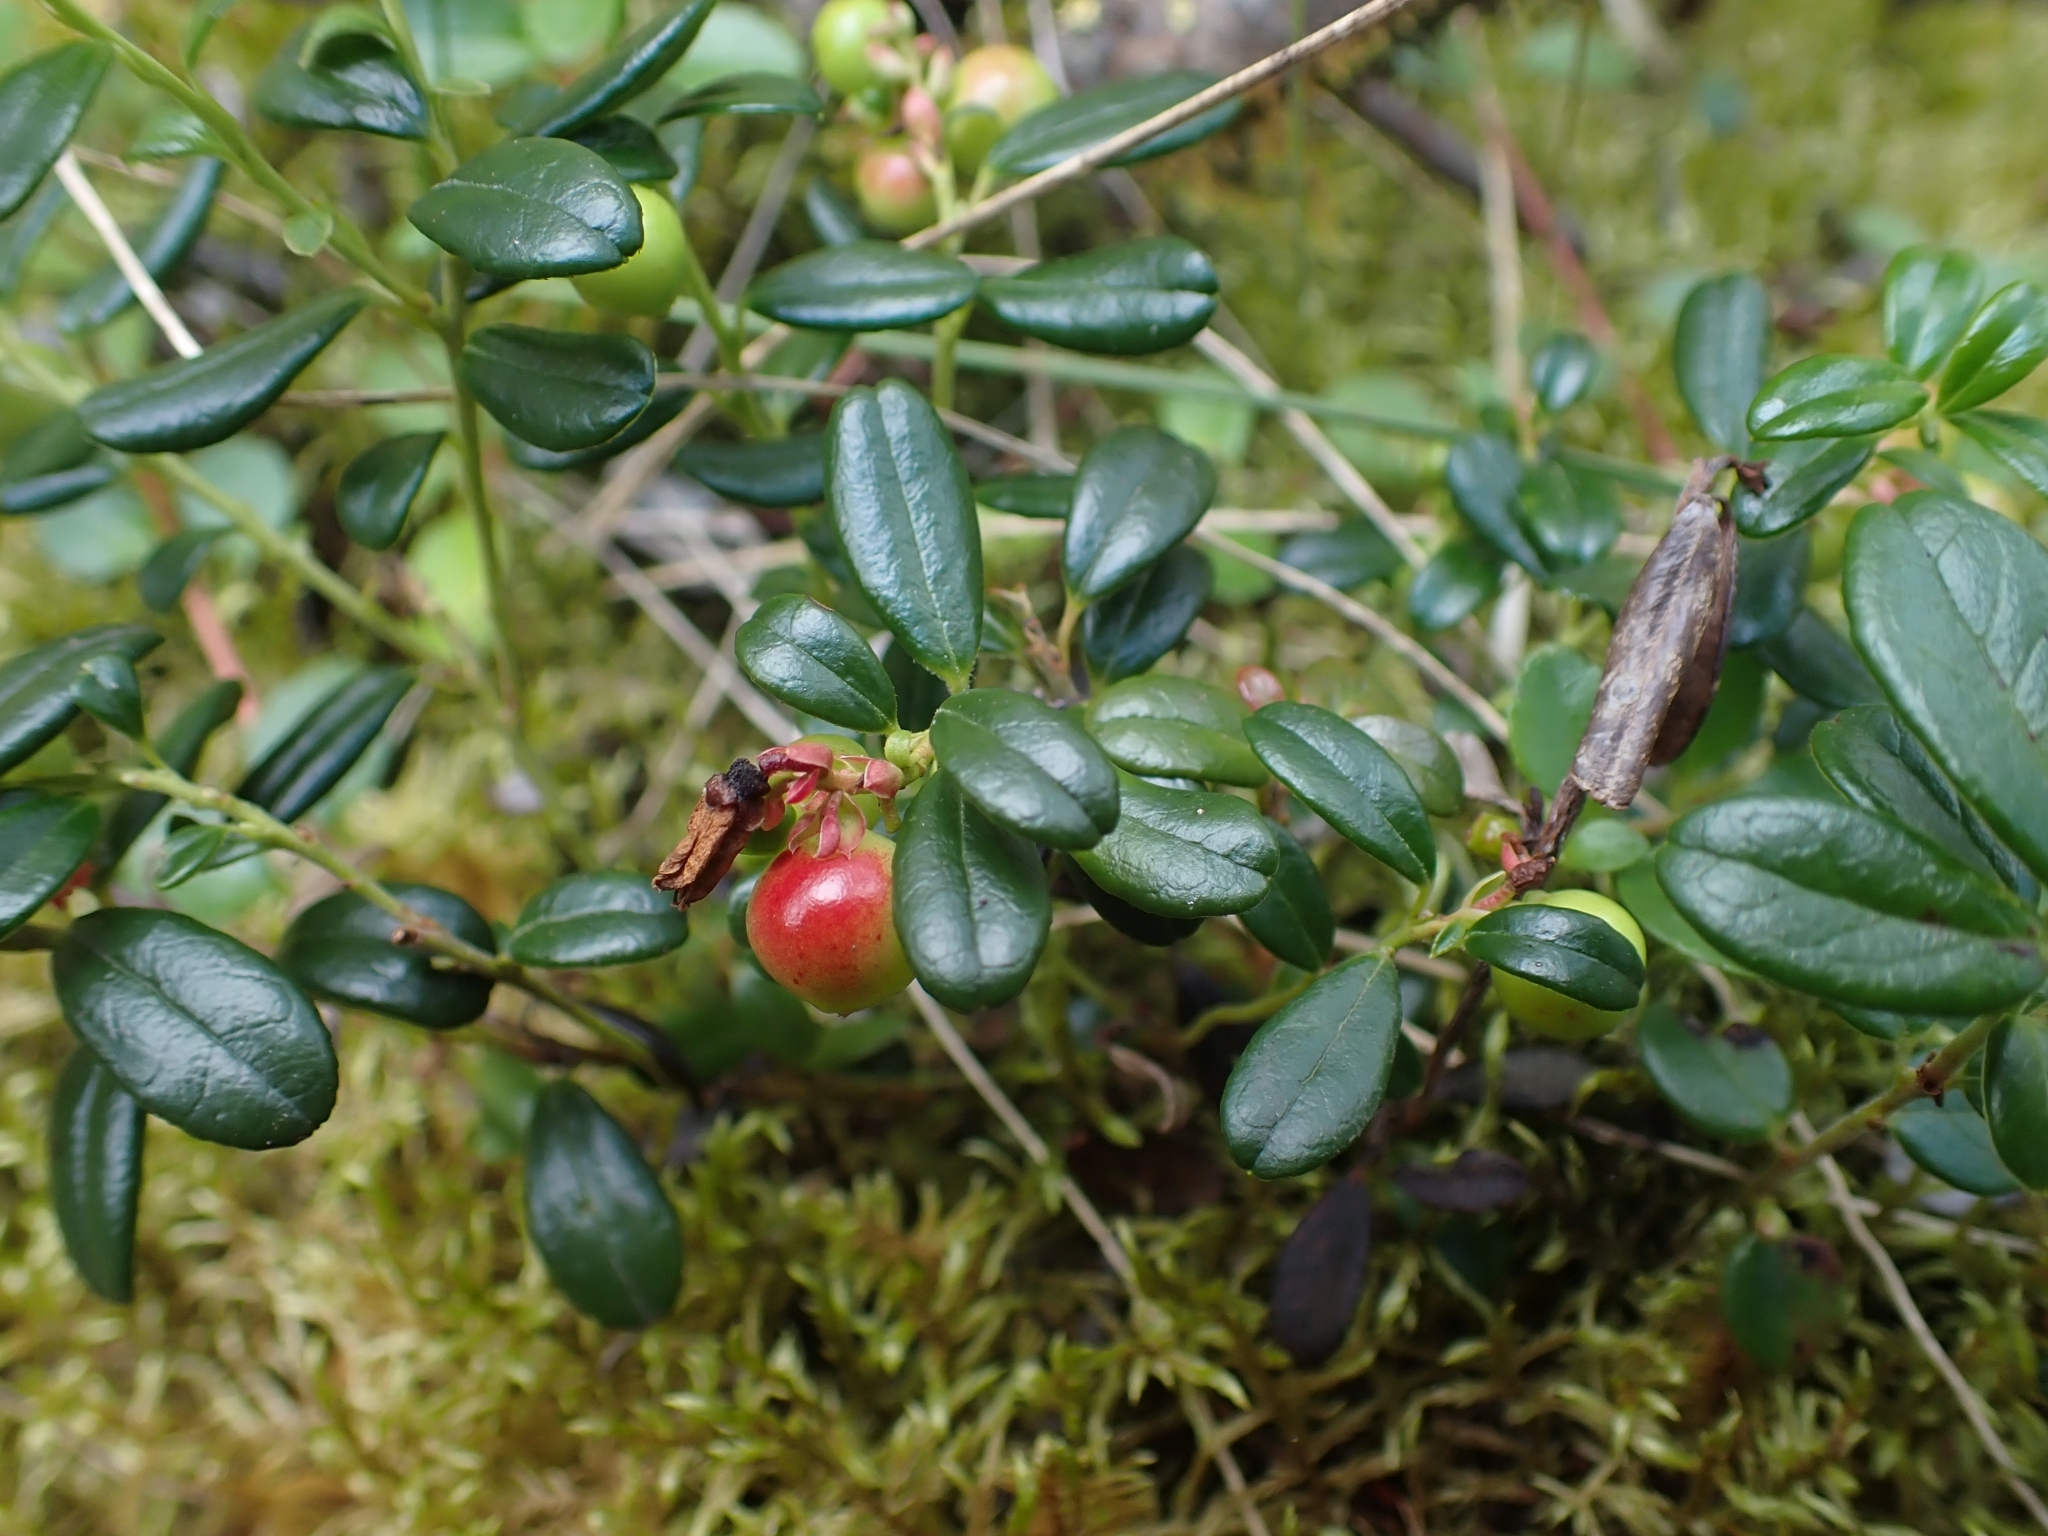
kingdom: Plantae
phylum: Tracheophyta
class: Magnoliopsida
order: Ericales
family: Ericaceae
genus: Vaccinium
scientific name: Vaccinium vitis-idaea
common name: Cowberry
